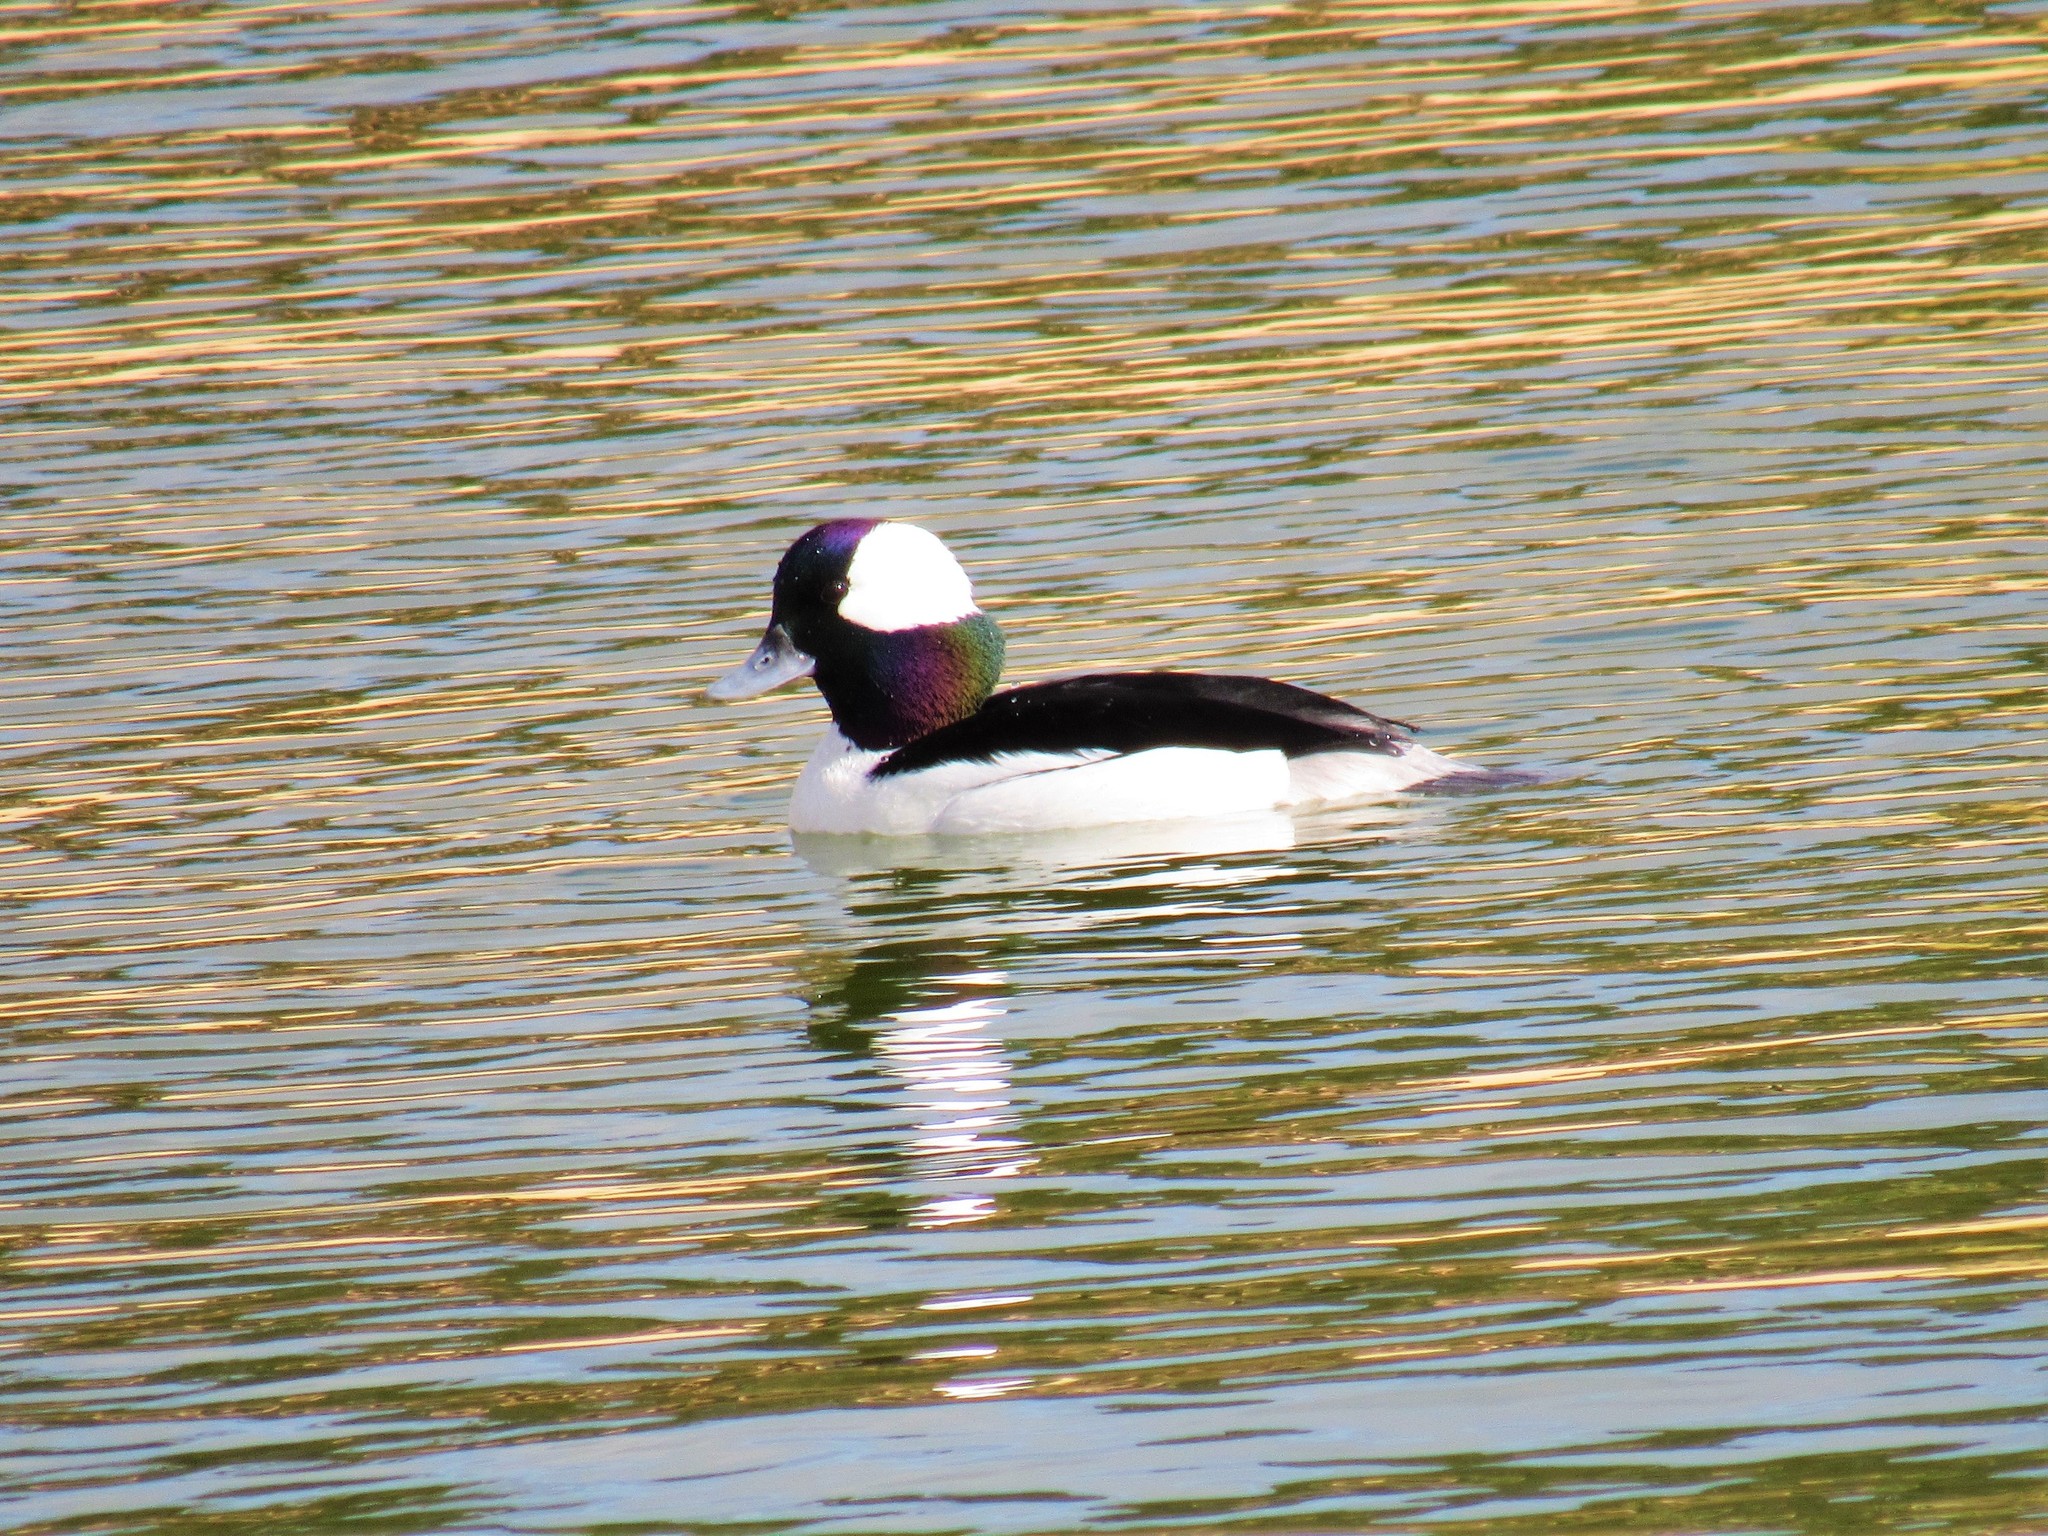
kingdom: Animalia
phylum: Chordata
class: Aves
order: Anseriformes
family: Anatidae
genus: Bucephala
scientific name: Bucephala albeola
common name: Bufflehead
